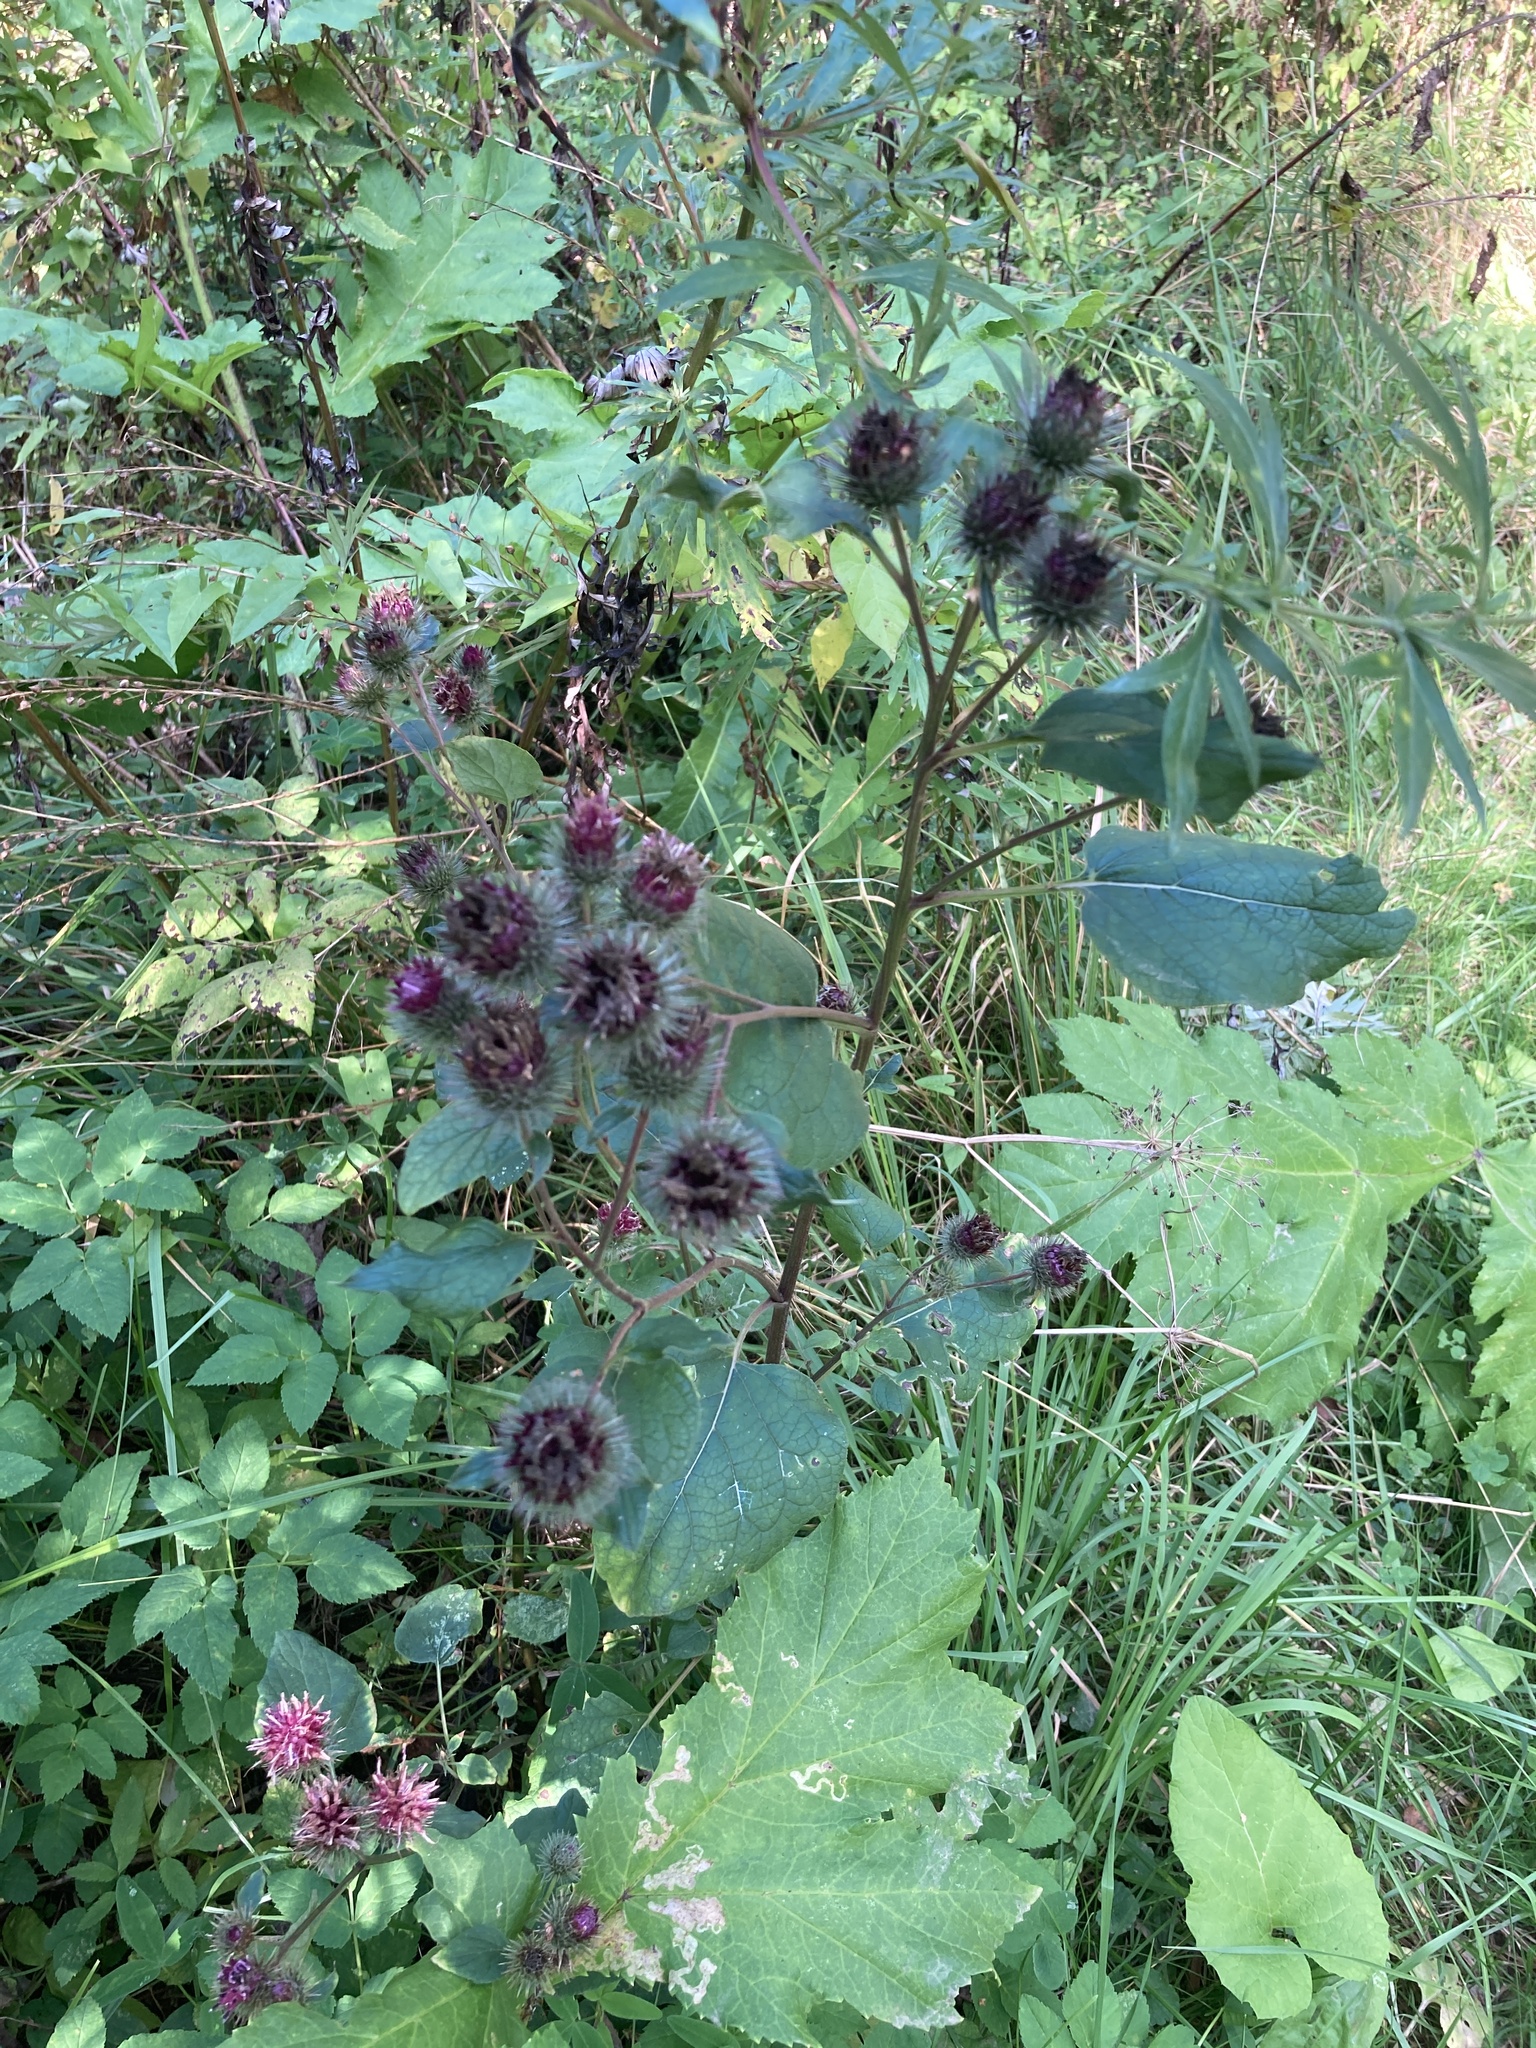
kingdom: Plantae
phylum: Tracheophyta
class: Magnoliopsida
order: Asterales
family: Asteraceae
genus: Arctium
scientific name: Arctium tomentosum
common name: Woolly burdock
